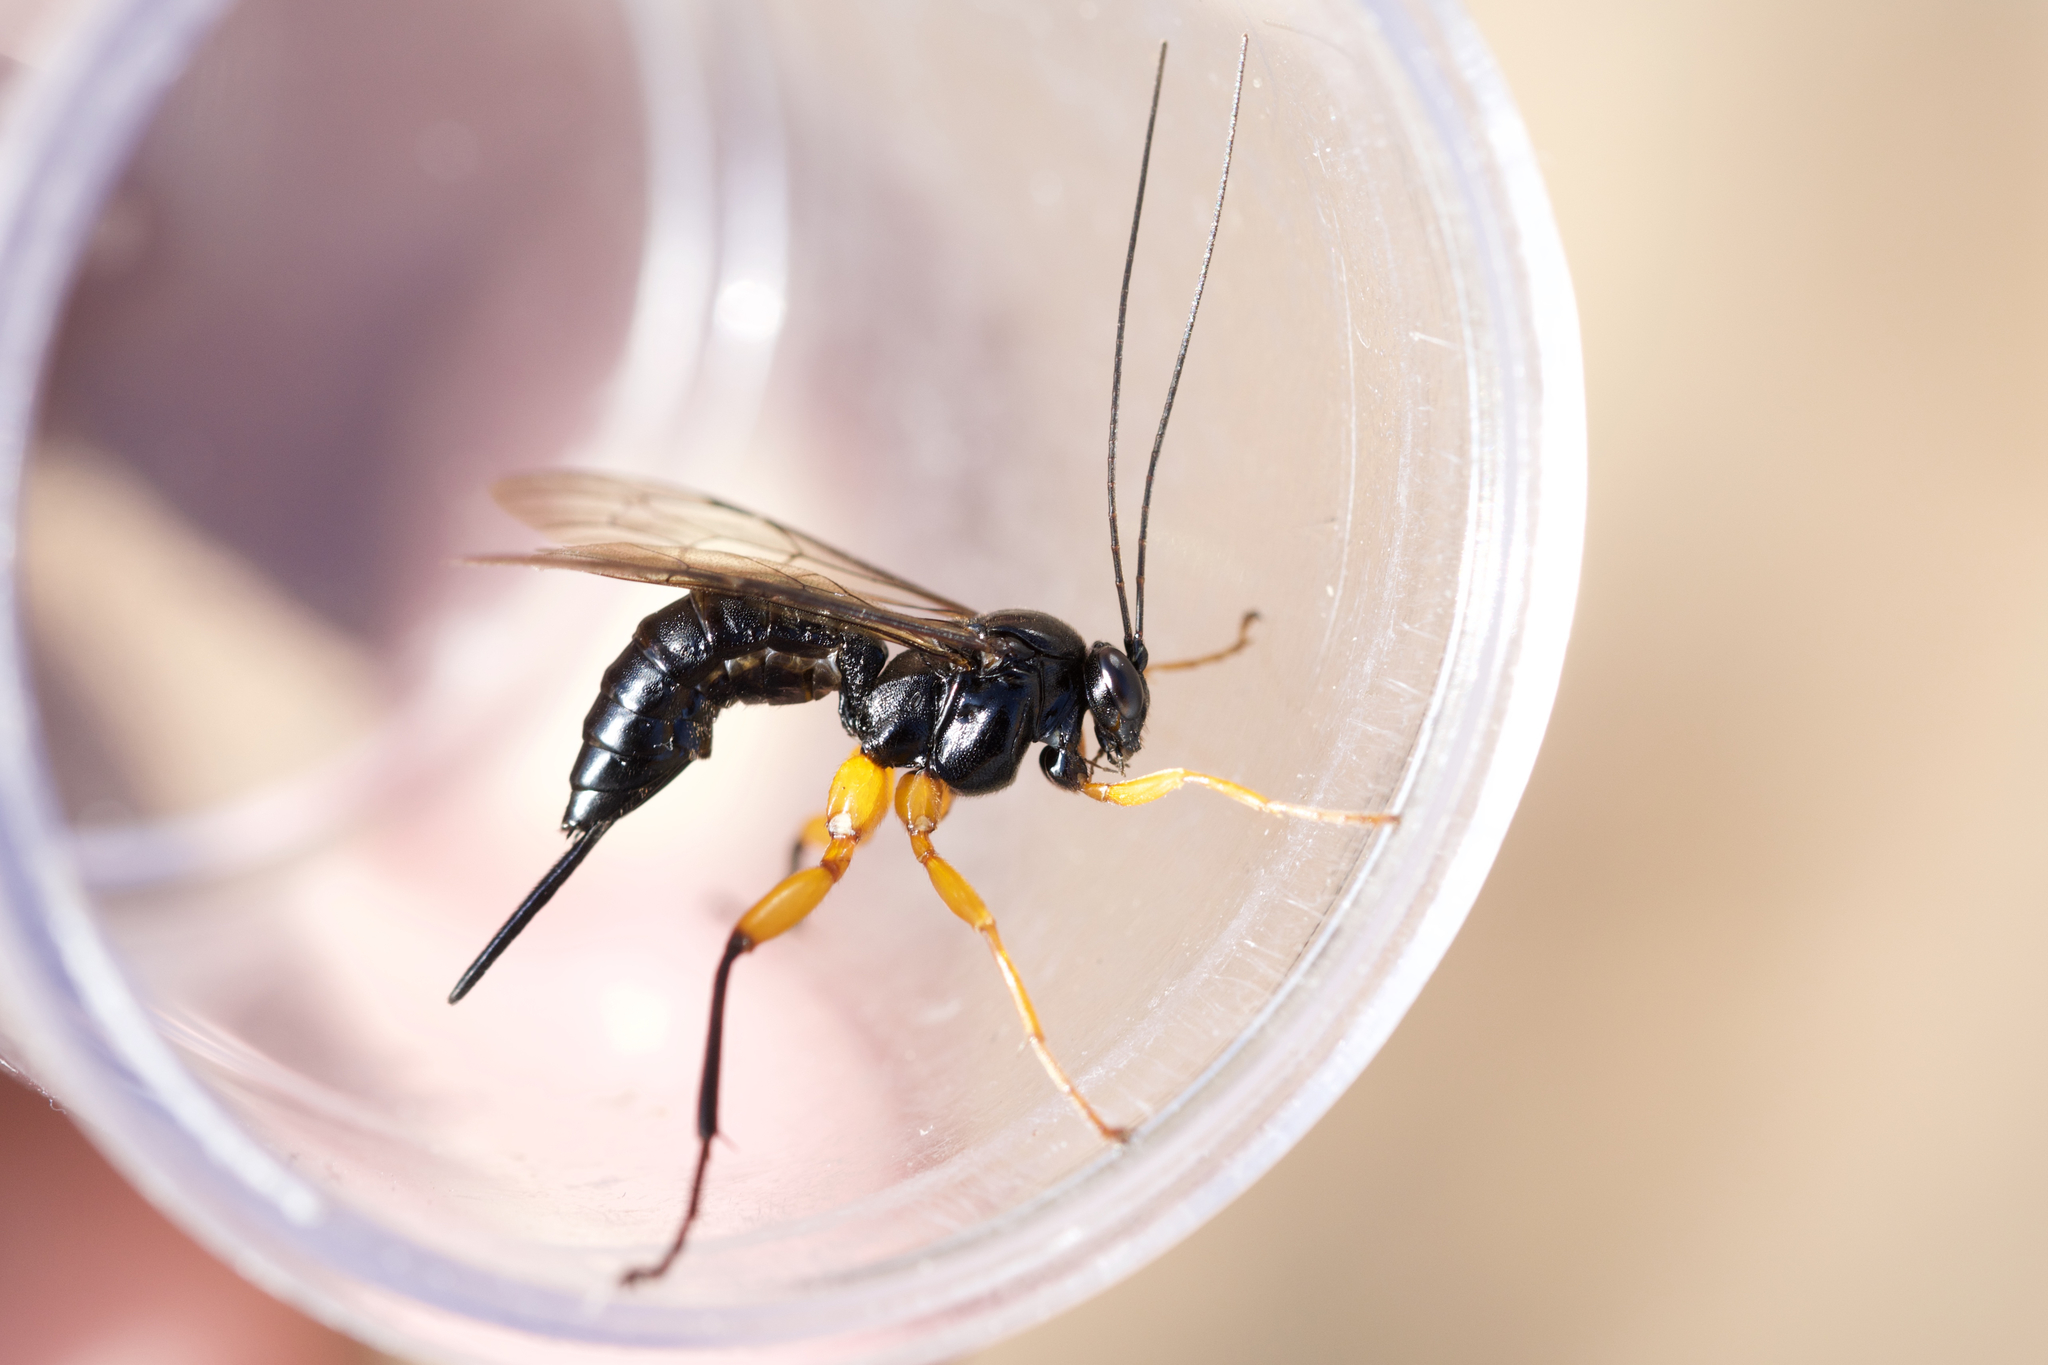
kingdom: Animalia
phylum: Arthropoda
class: Insecta
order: Hymenoptera
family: Ichneumonidae
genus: Pimpla
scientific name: Pimpla pedalis
